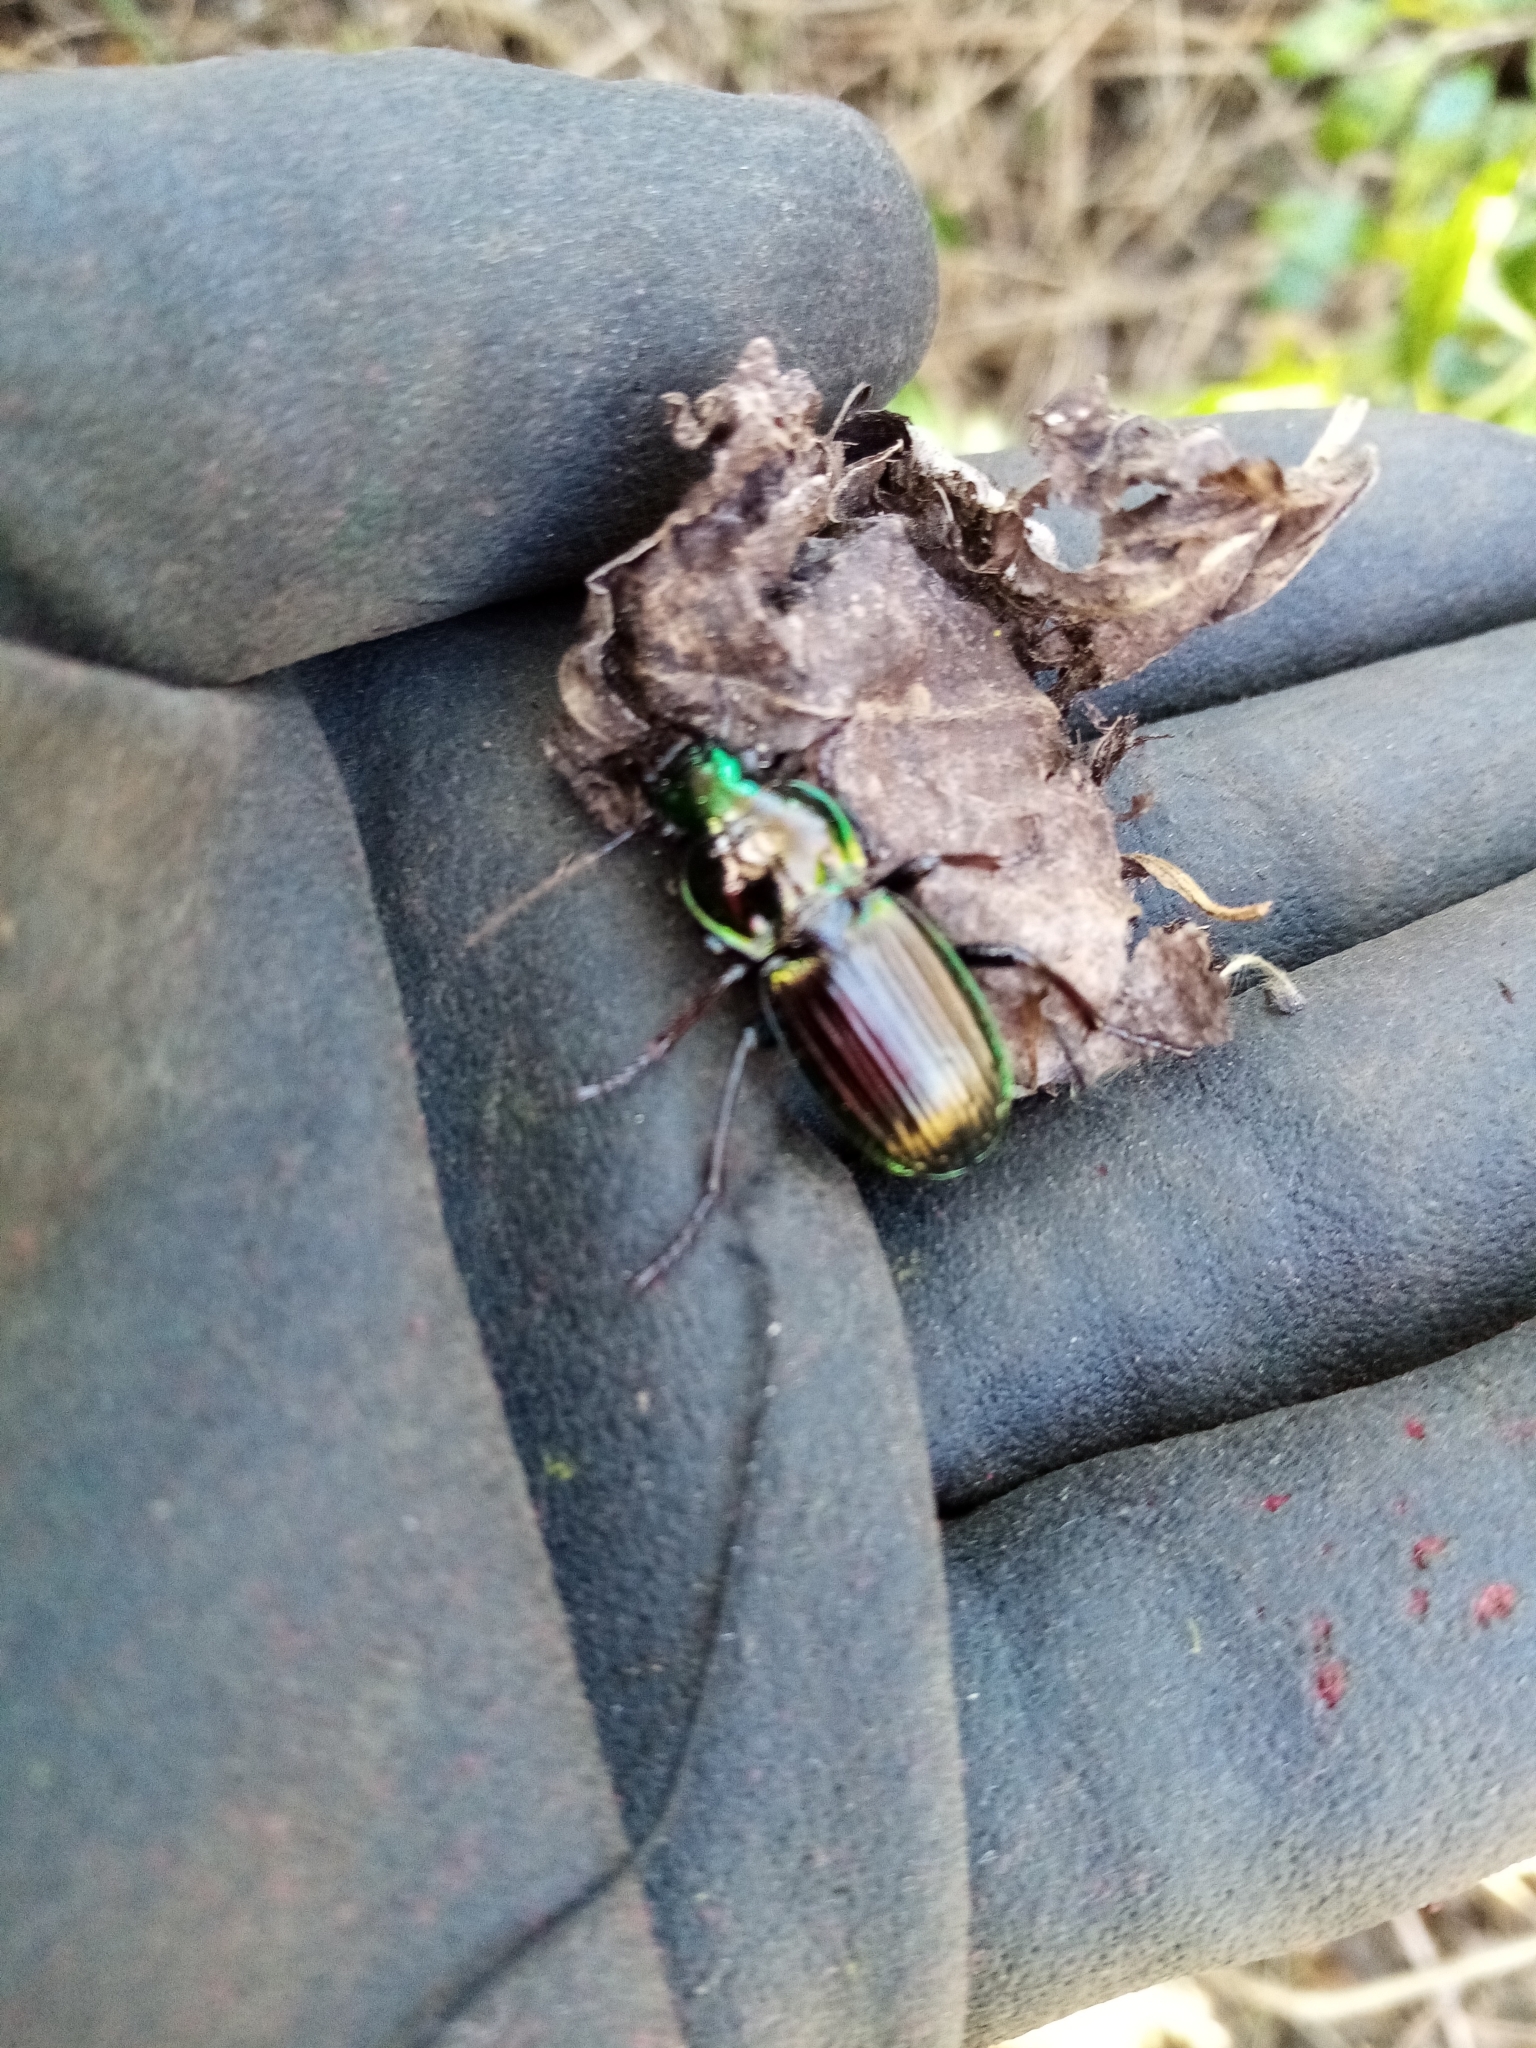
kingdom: Animalia
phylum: Arthropoda
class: Insecta
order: Coleoptera
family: Carabidae
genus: Megadromus
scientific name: Megadromus antarcticus
